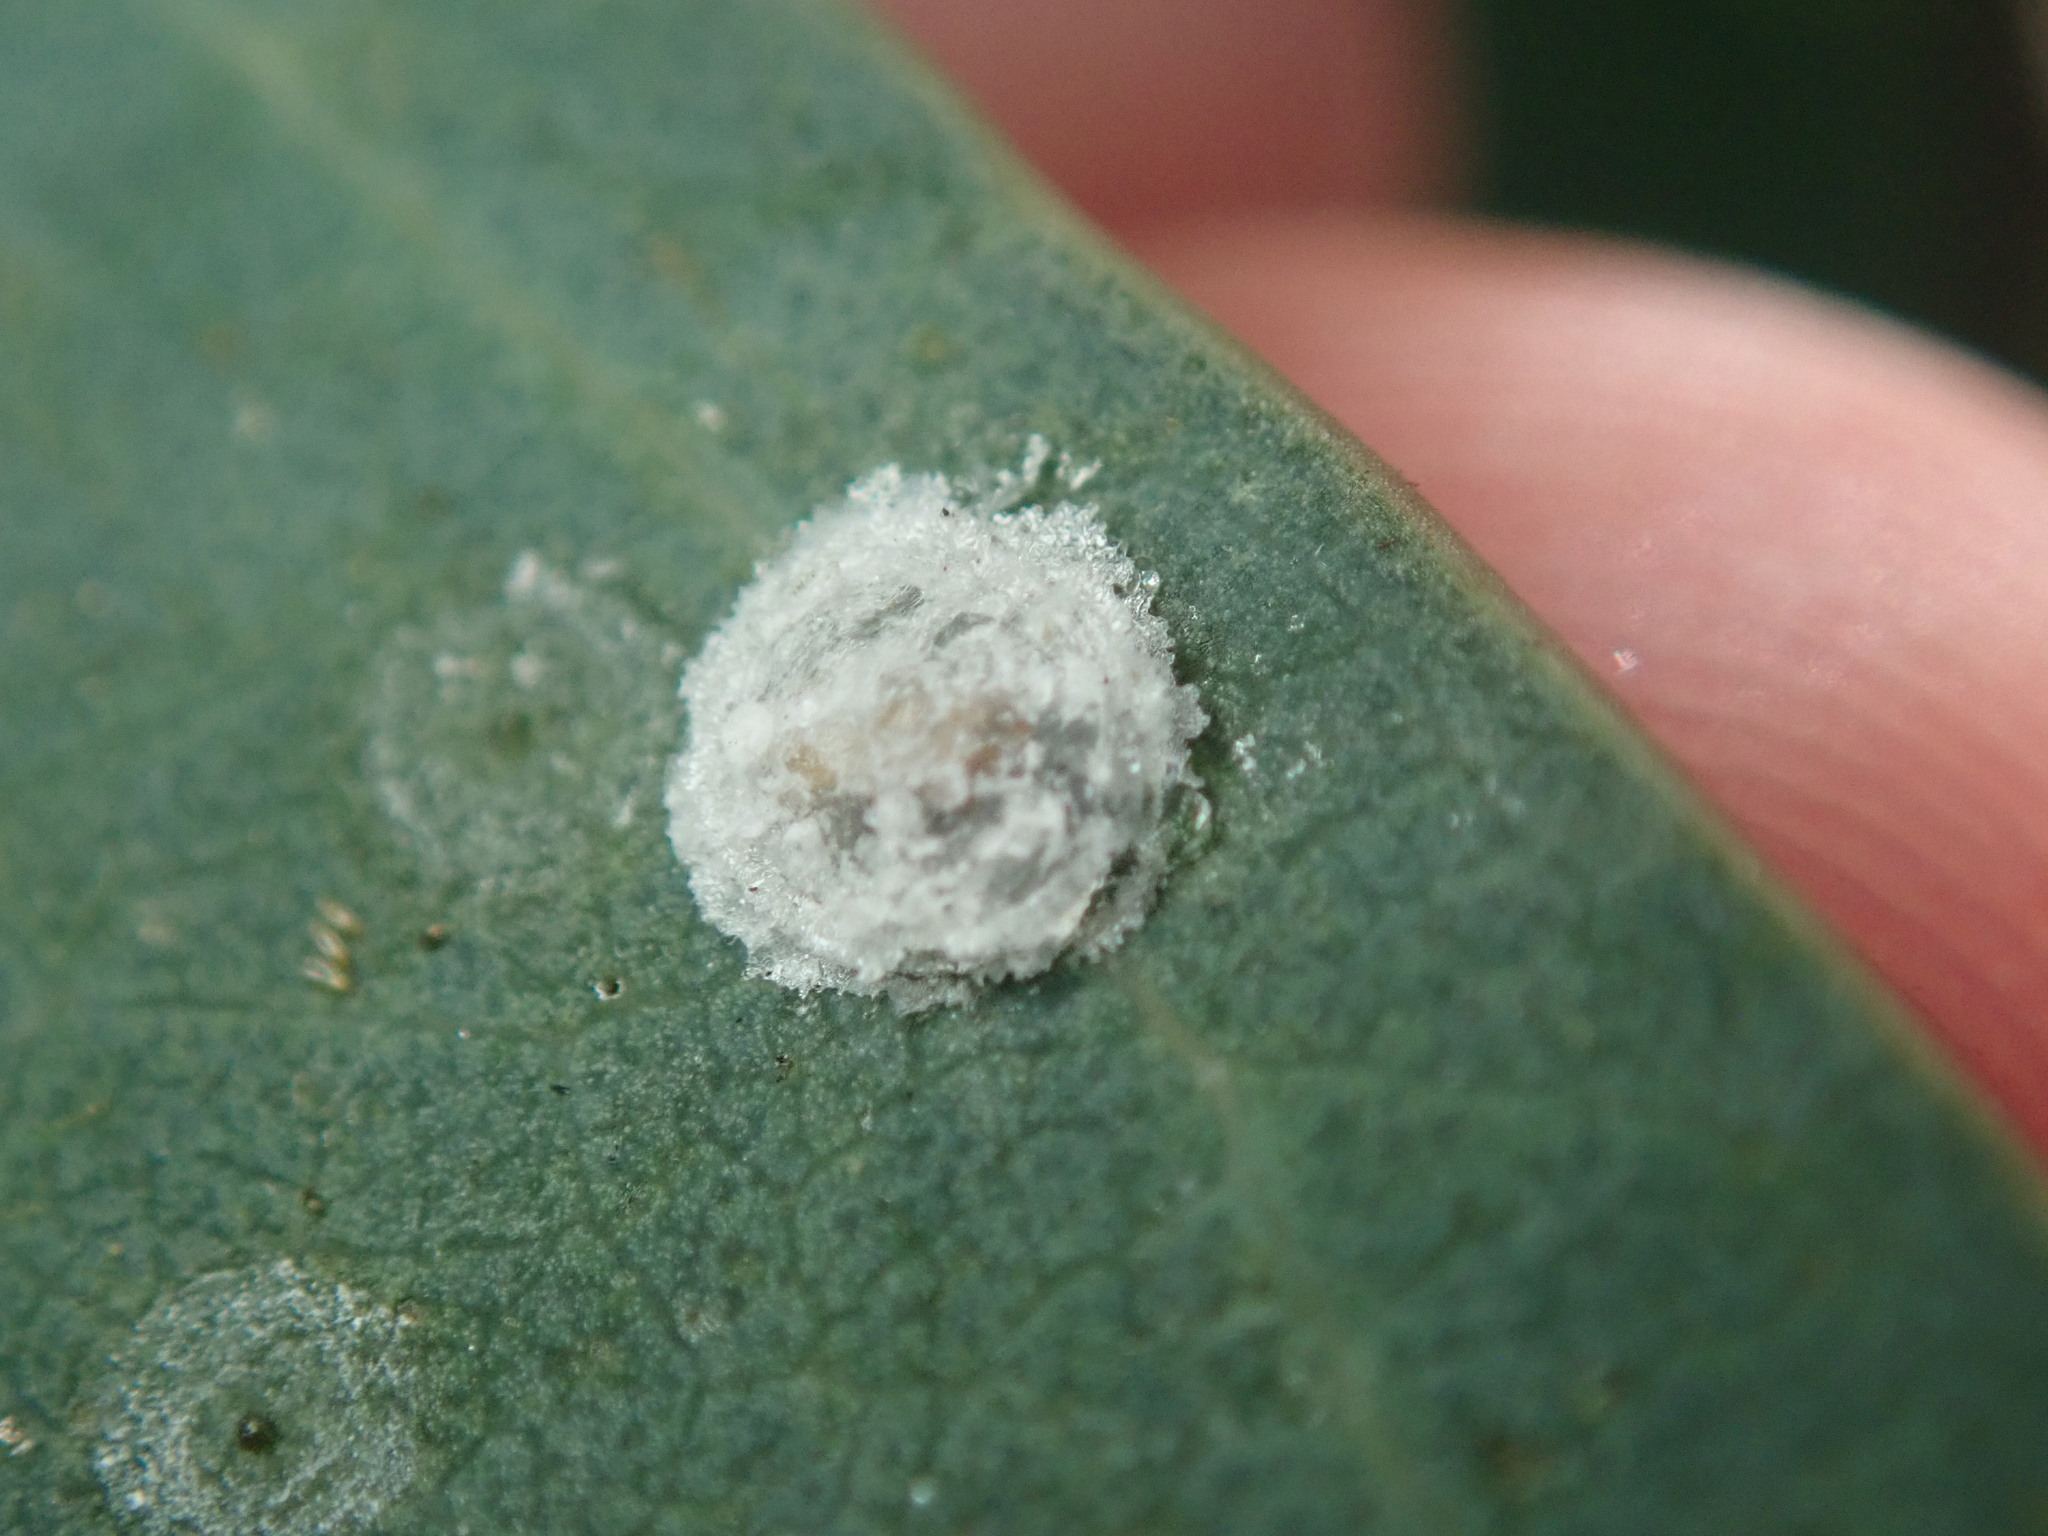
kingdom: Animalia
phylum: Arthropoda
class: Insecta
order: Hemiptera
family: Aphalaridae
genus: Glycaspis
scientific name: Glycaspis brimblecombei
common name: Red gum lerp psyllid
